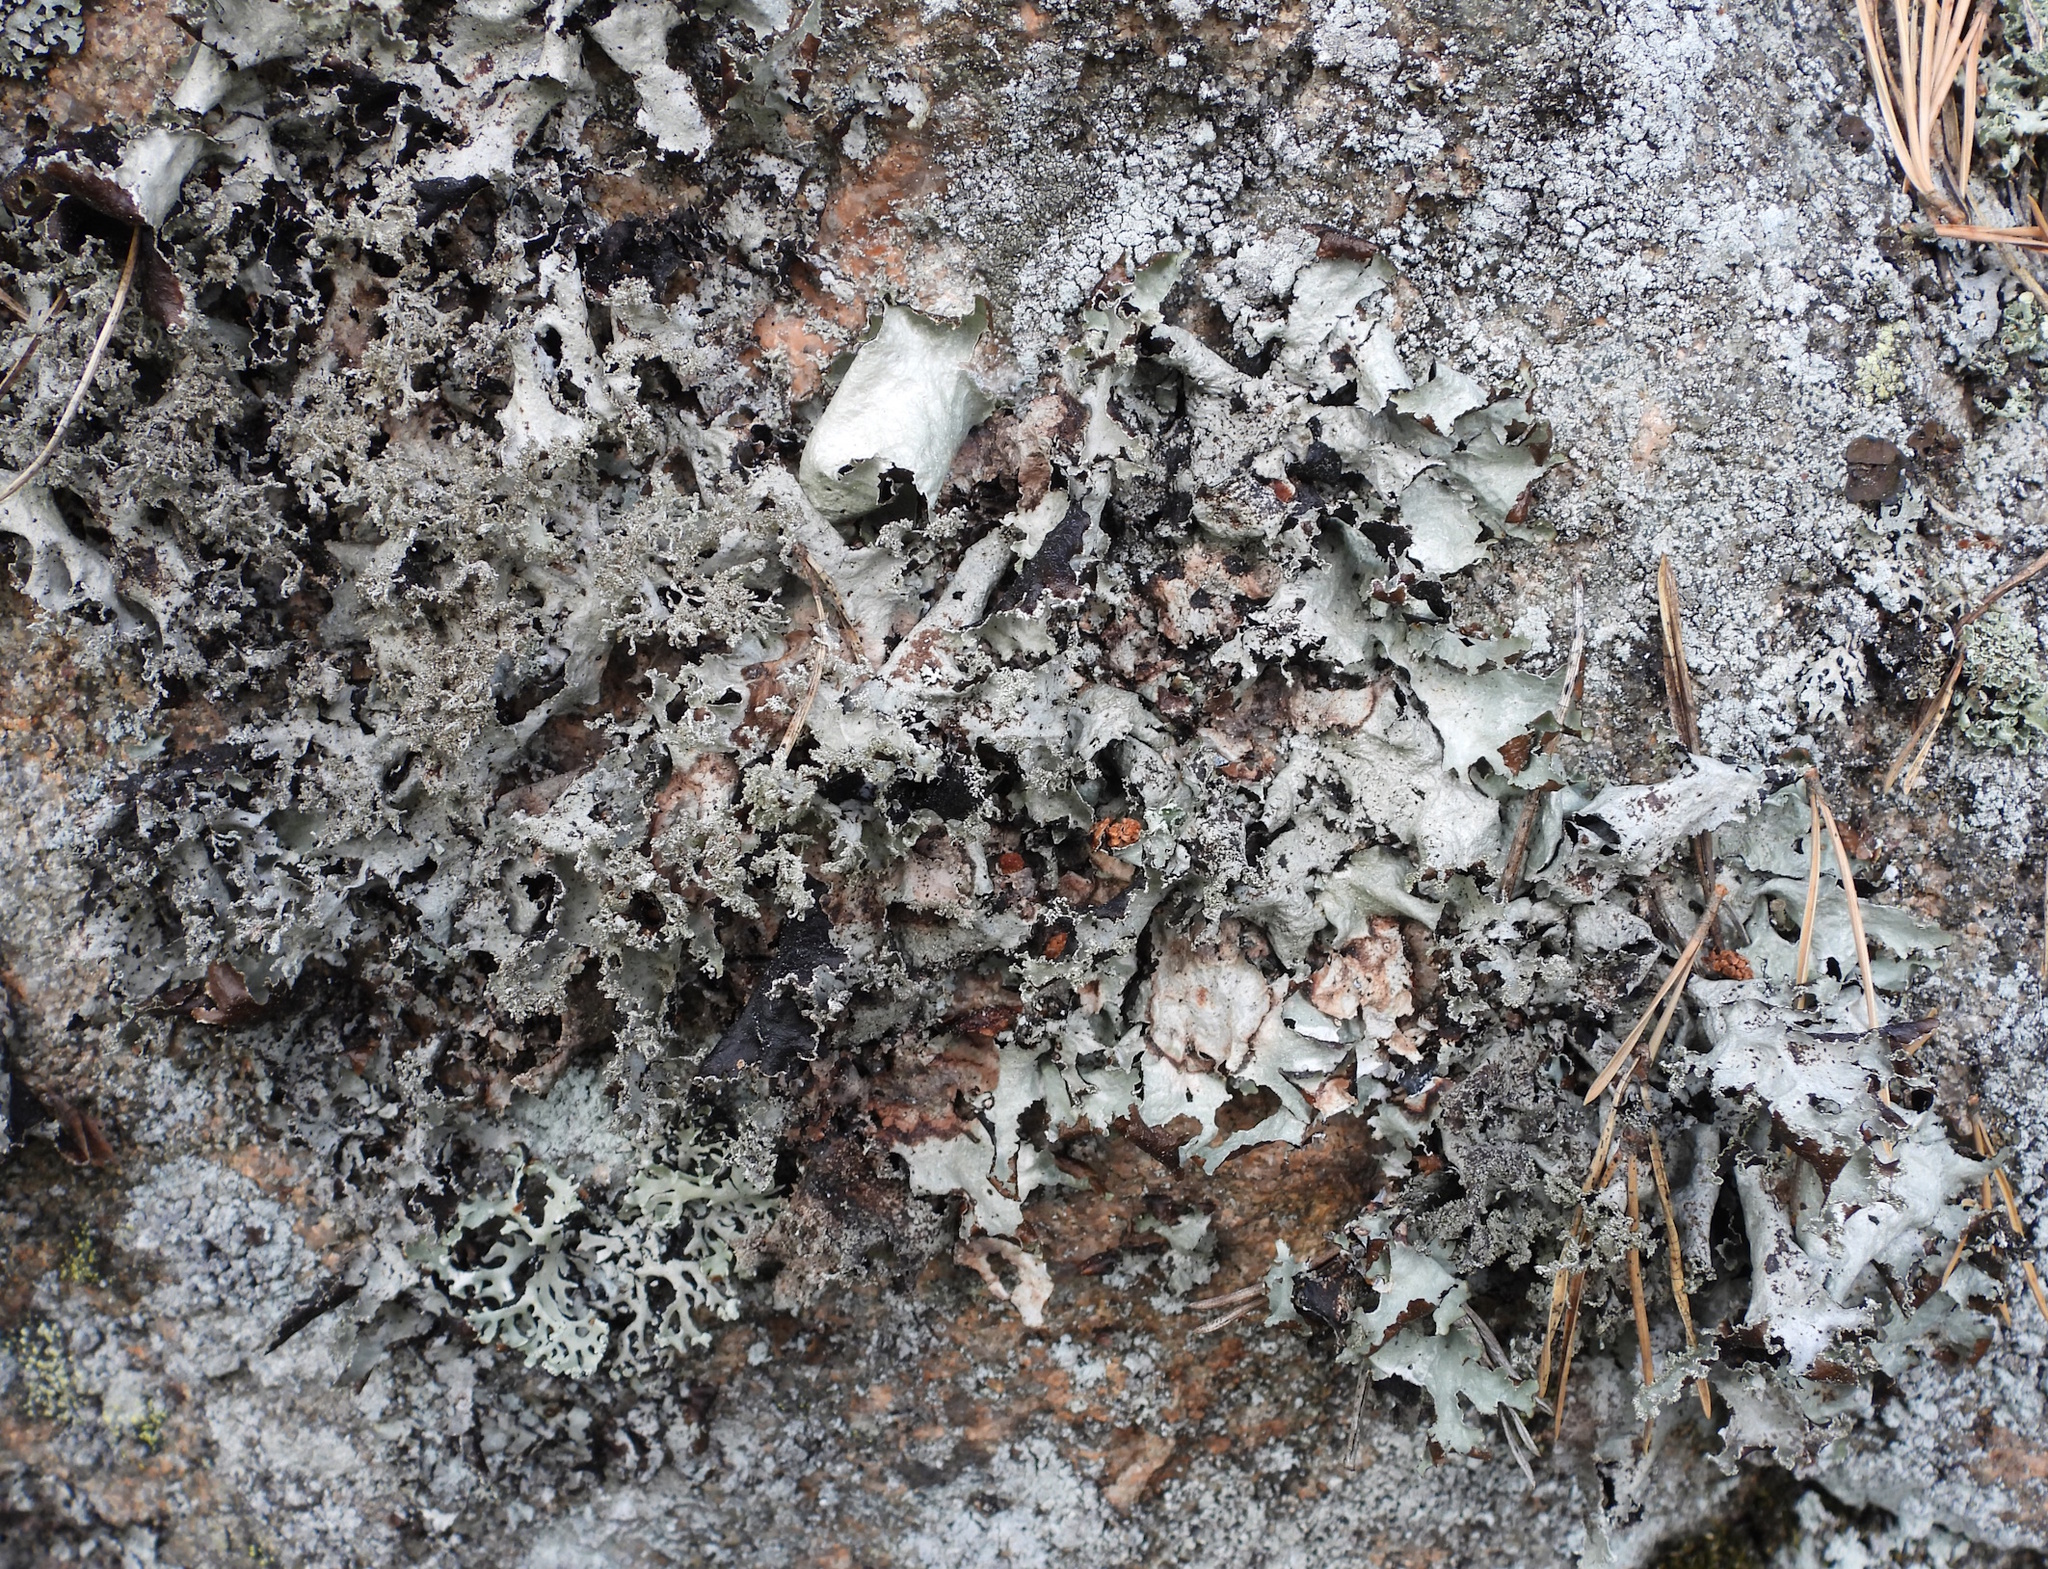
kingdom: Fungi
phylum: Ascomycota
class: Lecanoromycetes
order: Lecanorales
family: Parmeliaceae
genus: Platismatia
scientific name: Platismatia glauca
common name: Varied rag lichen
